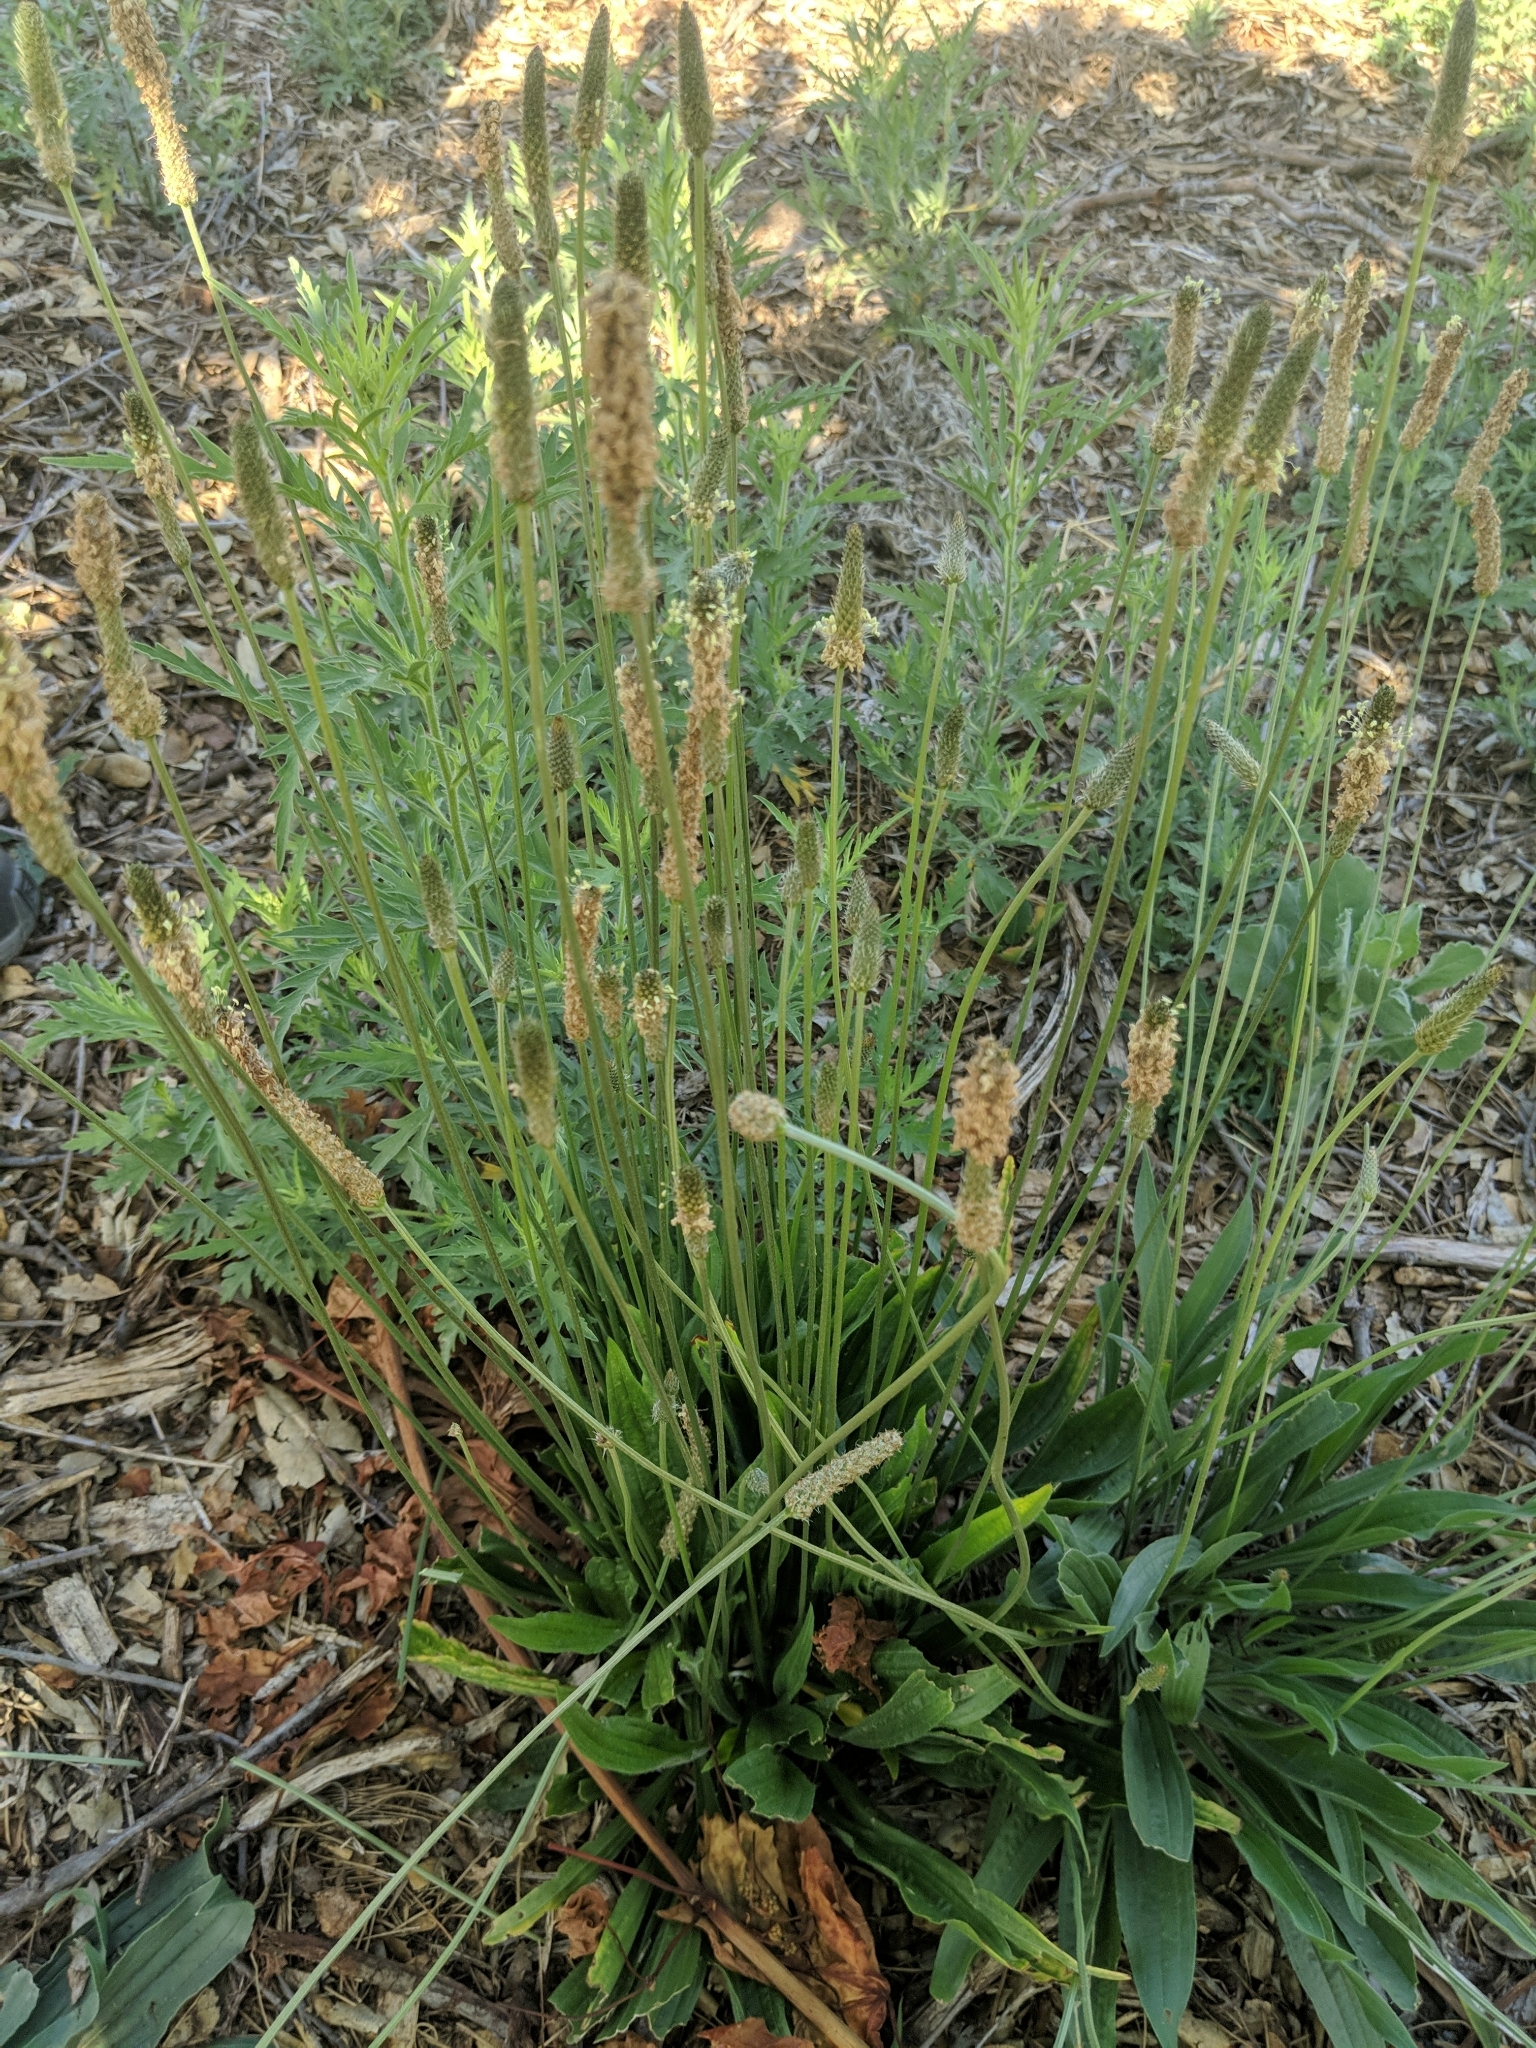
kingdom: Plantae
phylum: Tracheophyta
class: Magnoliopsida
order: Lamiales
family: Plantaginaceae
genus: Plantago
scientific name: Plantago lanceolata
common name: Ribwort plantain
